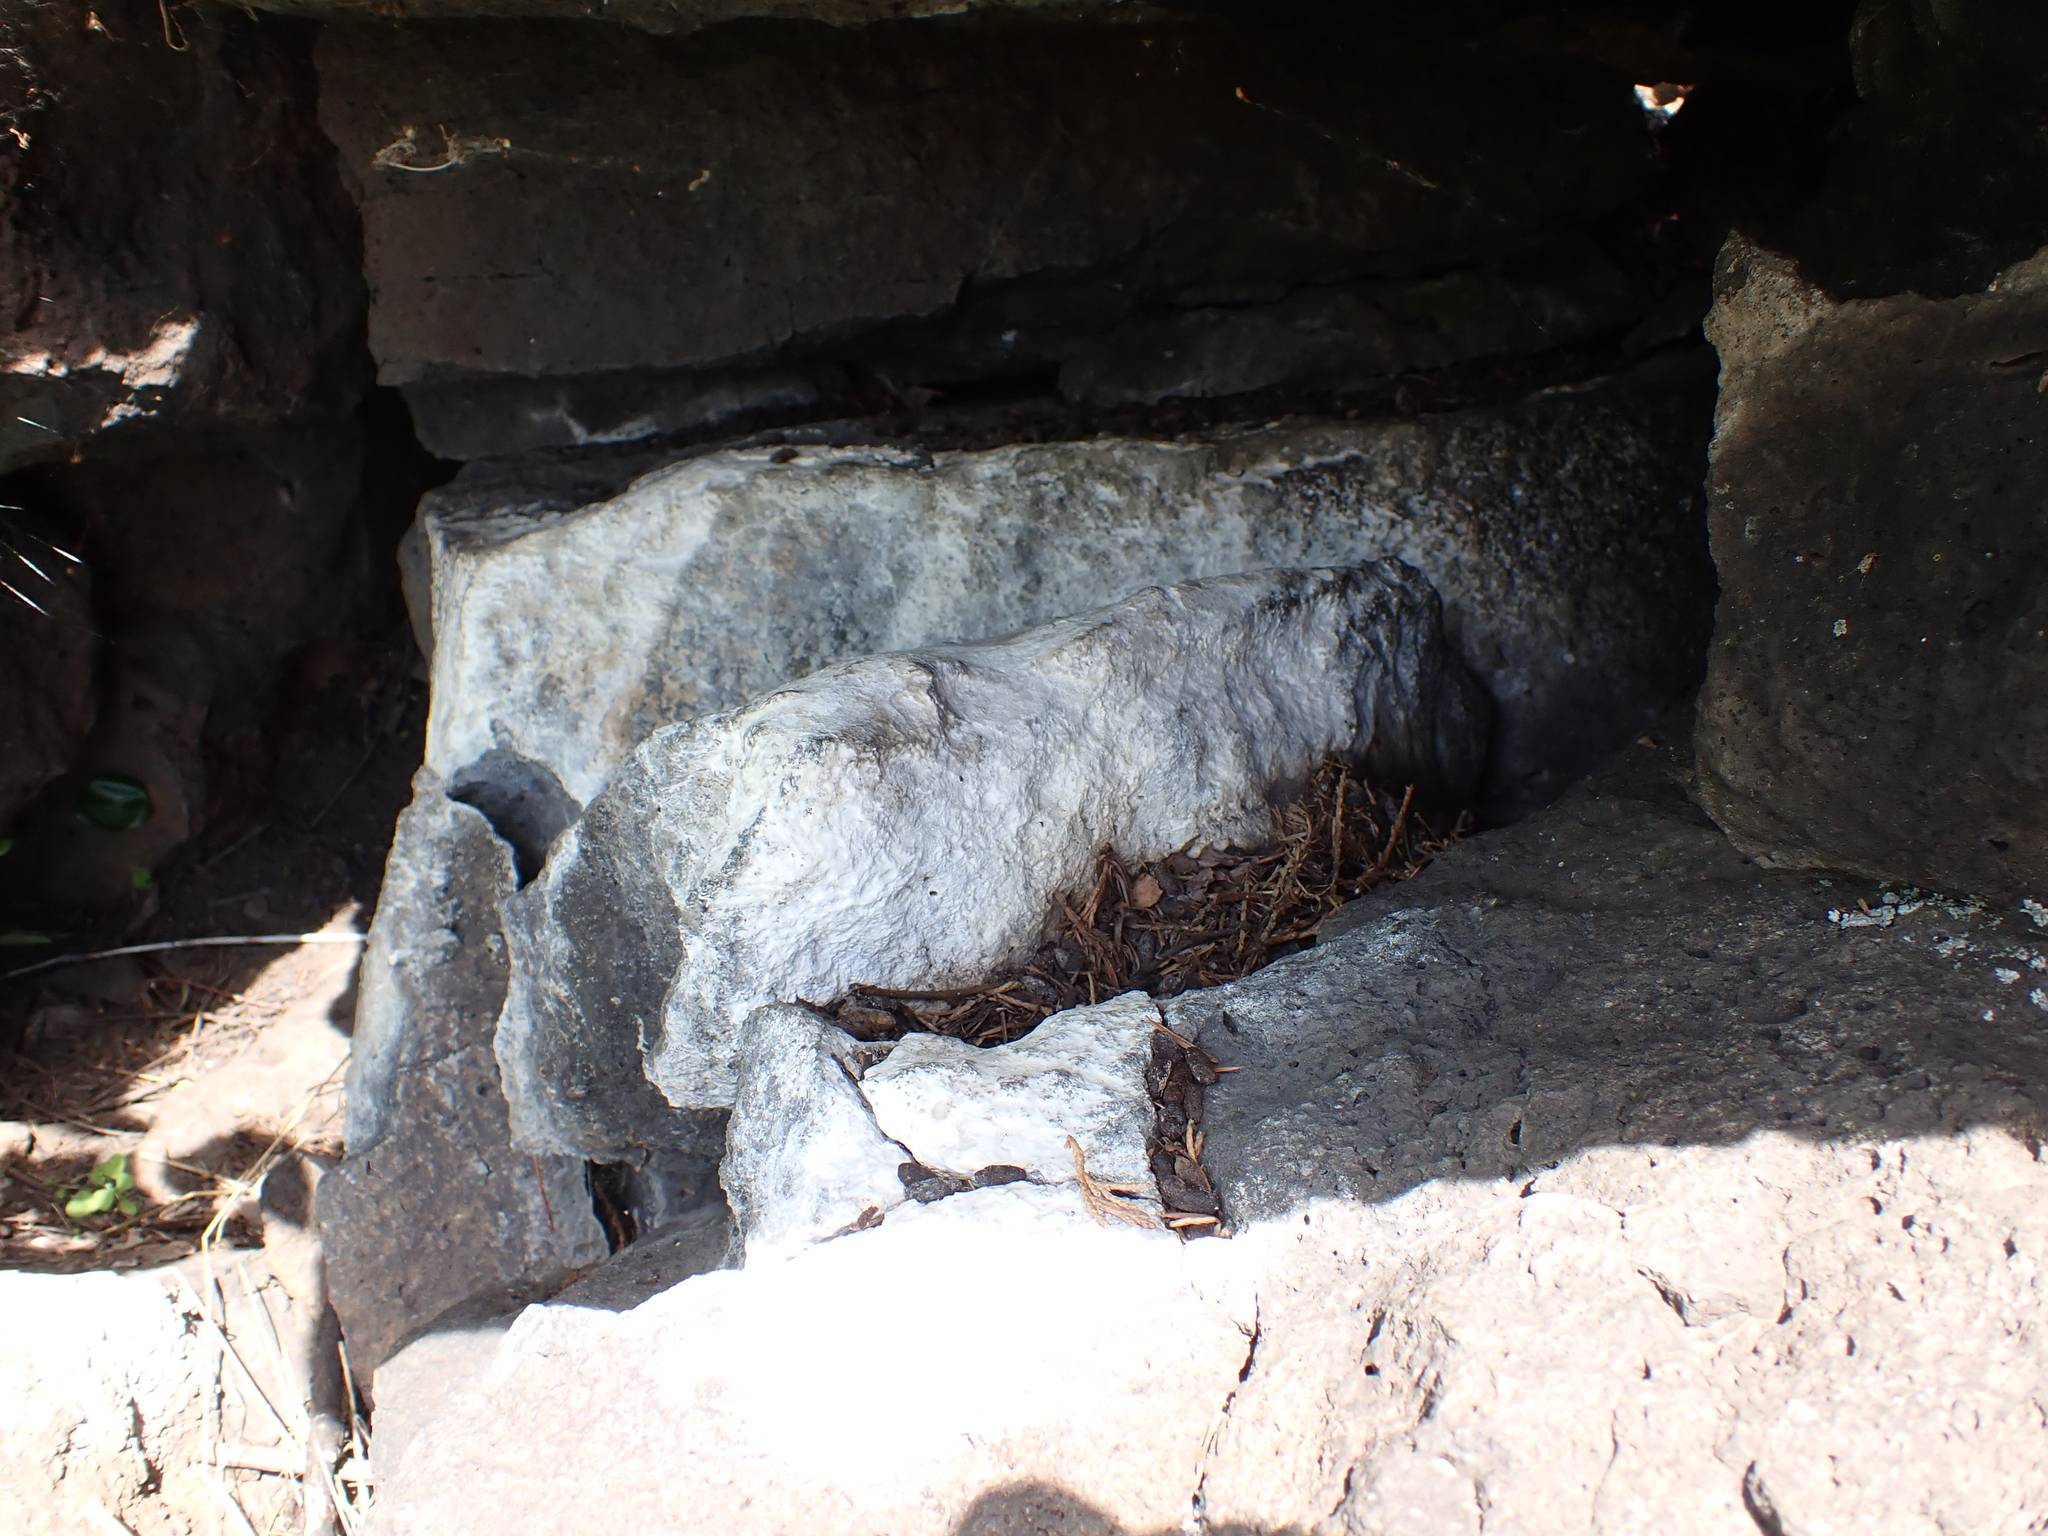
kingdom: Animalia
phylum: Chordata
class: Mammalia
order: Rodentia
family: Cricetidae
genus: Neotoma
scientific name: Neotoma cinerea
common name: Bushy-tailed woodrat
